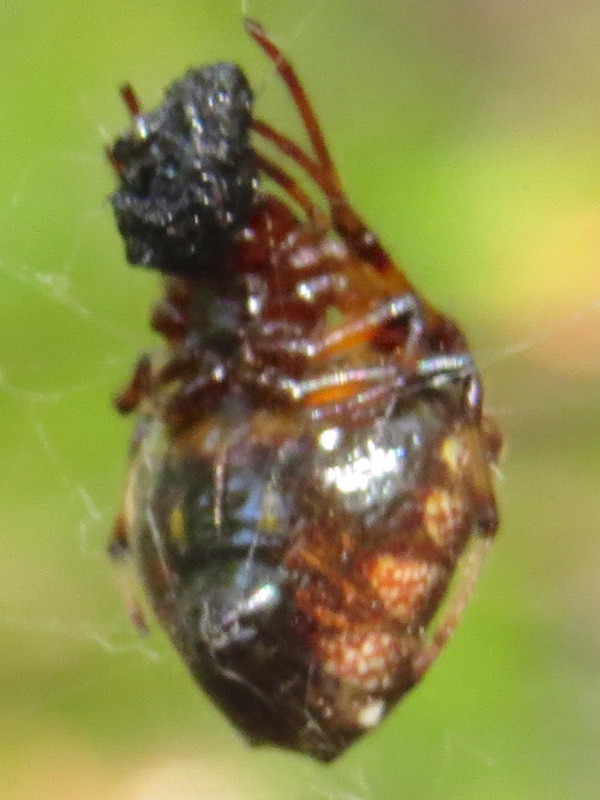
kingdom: Animalia
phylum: Arthropoda
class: Arachnida
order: Araneae
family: Araneidae
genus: Verrucosa
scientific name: Verrucosa arenata
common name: Orb weavers
